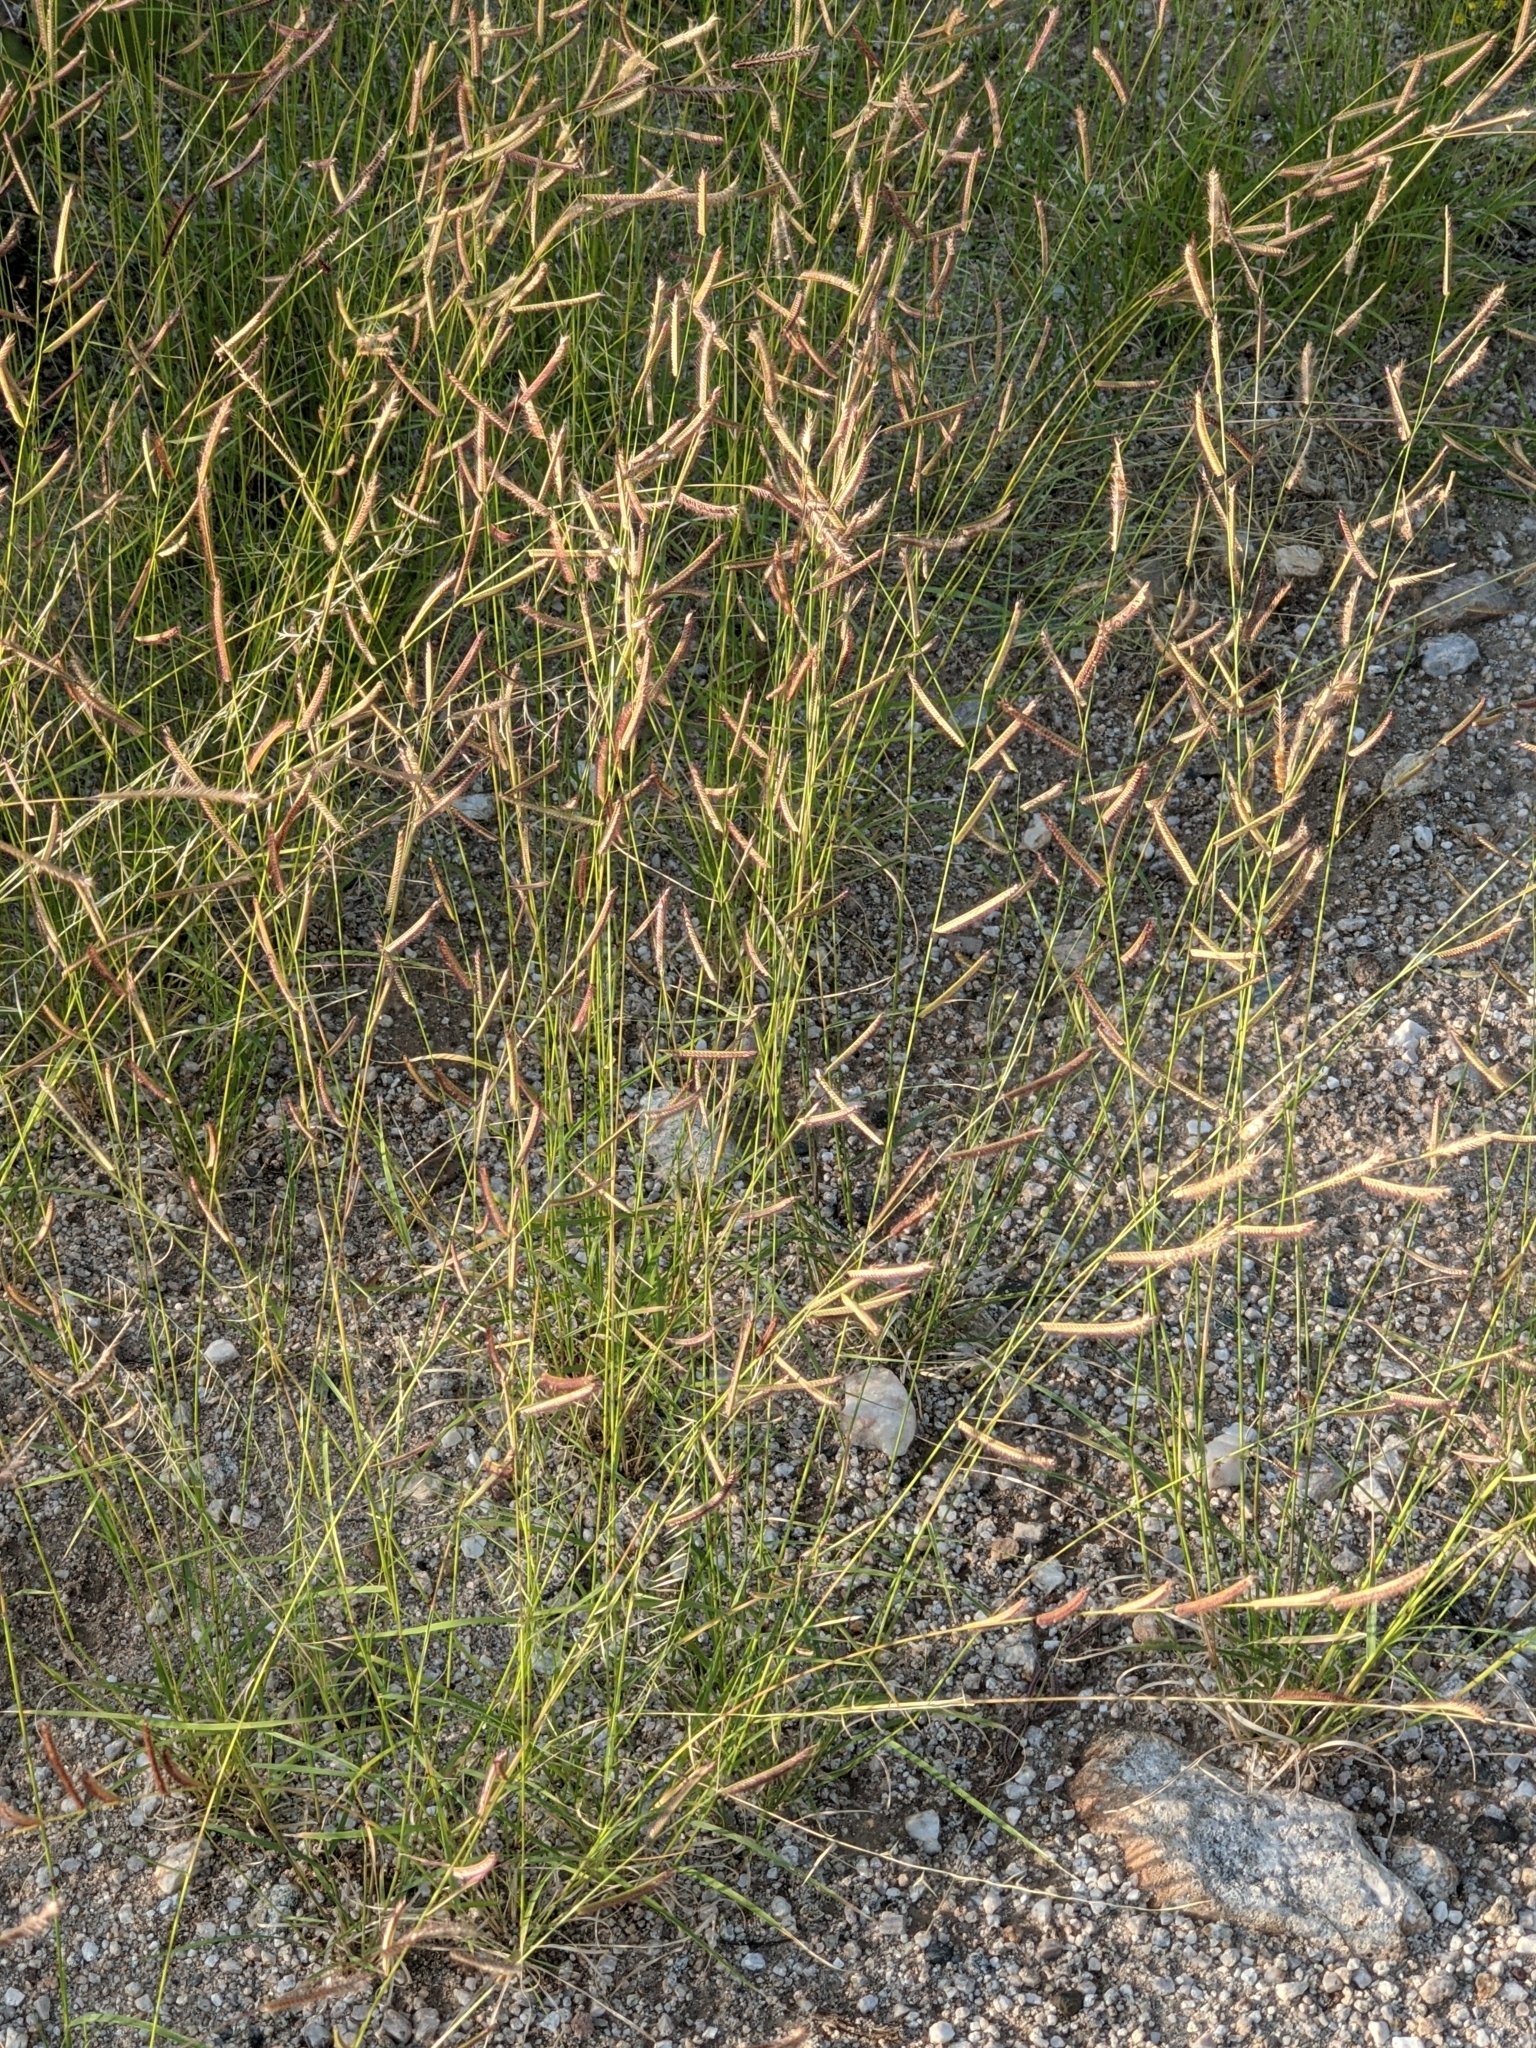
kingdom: Plantae
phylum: Tracheophyta
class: Liliopsida
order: Poales
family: Poaceae
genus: Bouteloua
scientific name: Bouteloua barbata
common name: Six-weeks grama
